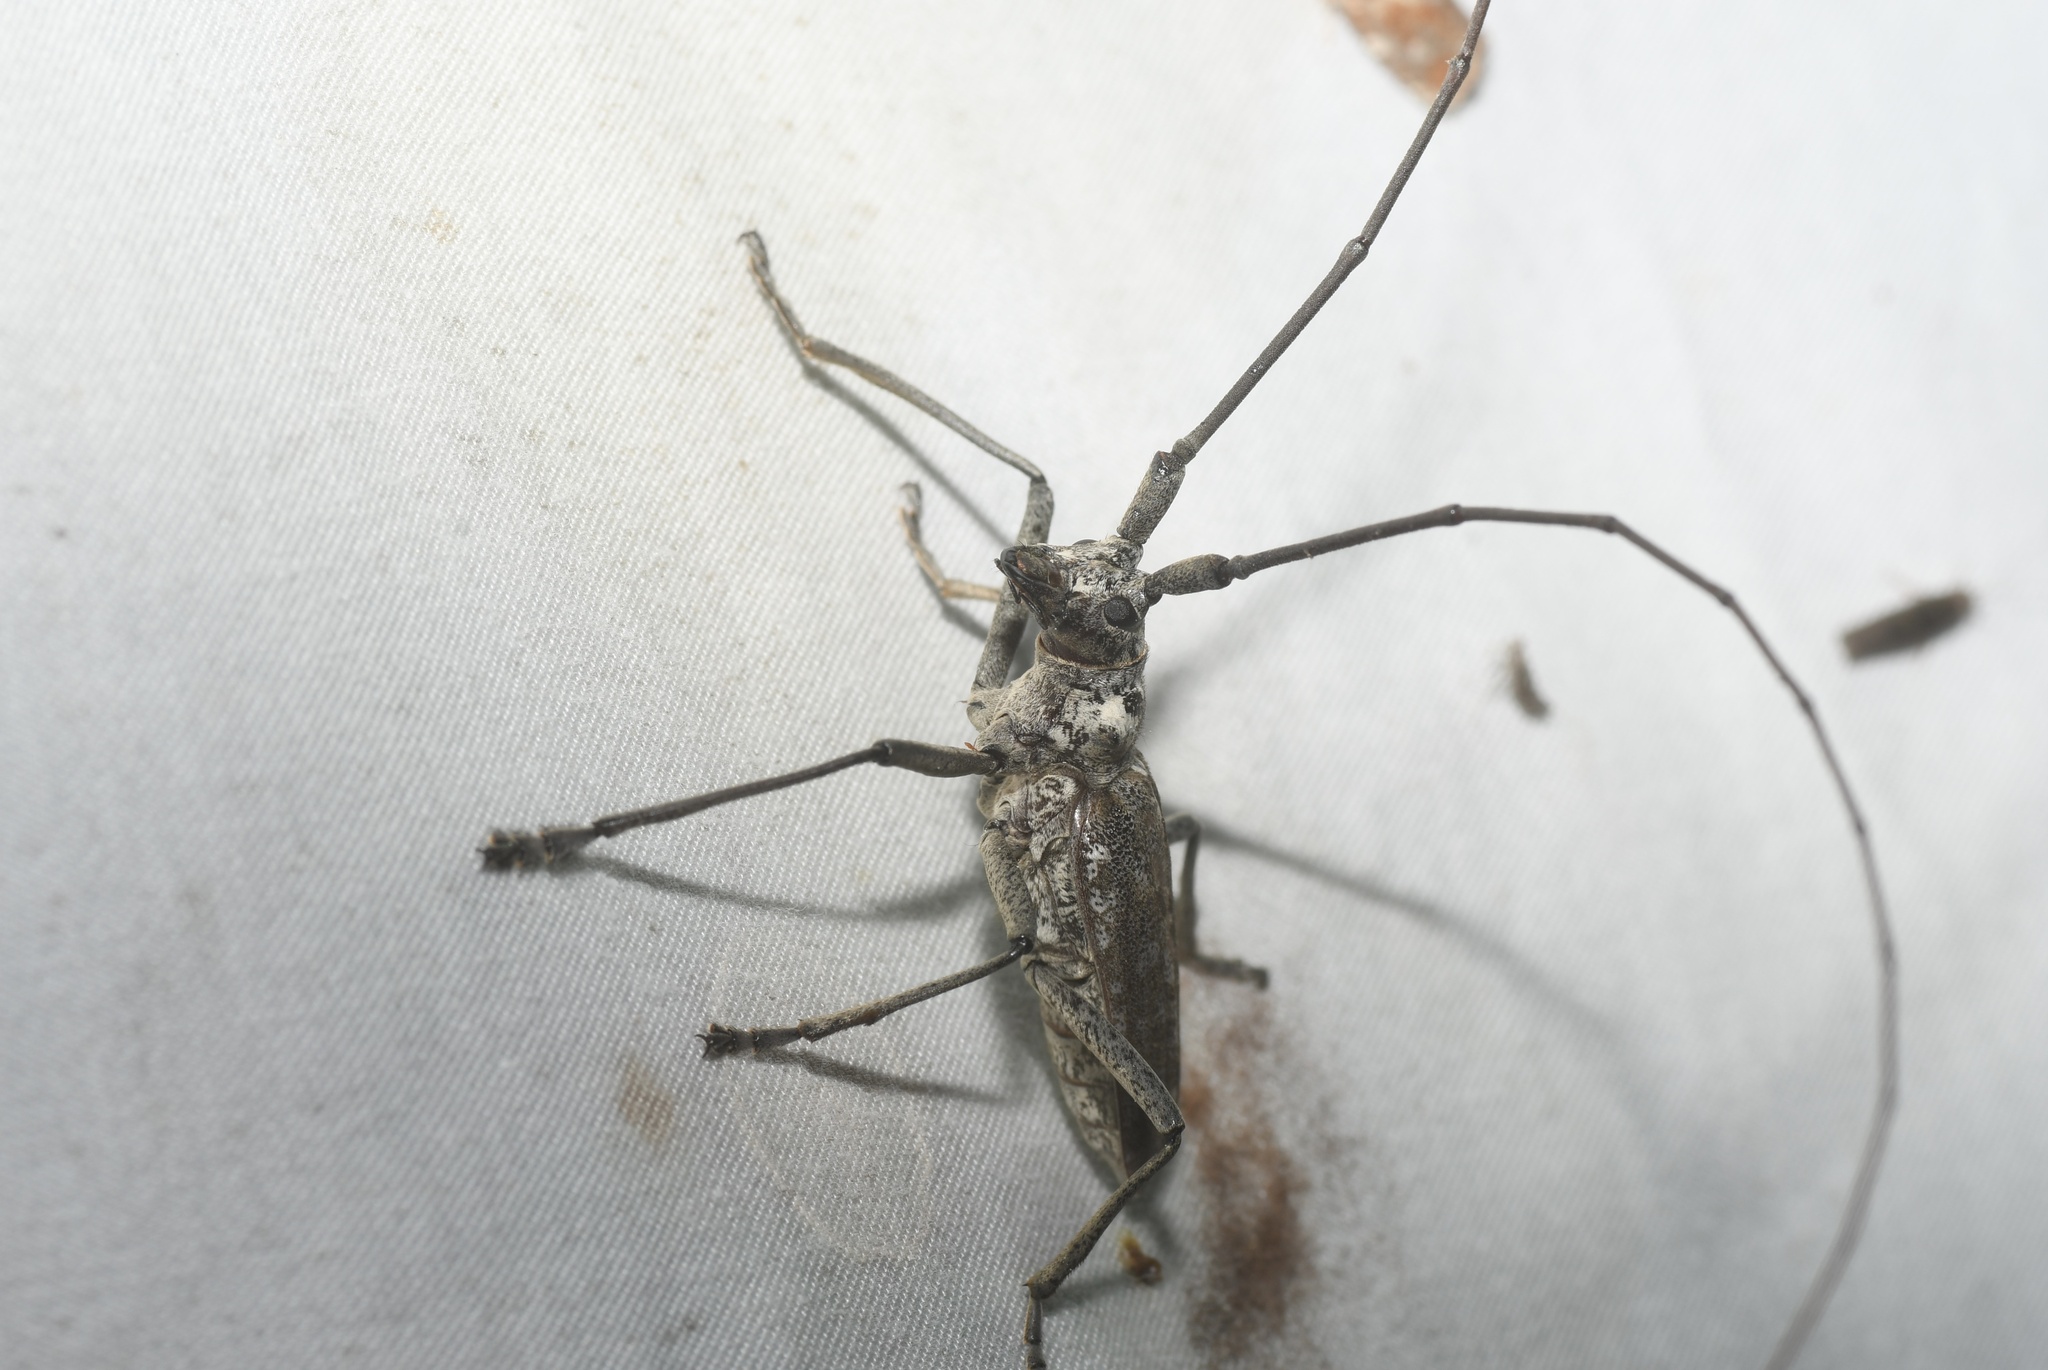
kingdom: Animalia
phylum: Arthropoda
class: Insecta
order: Coleoptera
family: Cerambycidae
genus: Monochamus
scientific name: Monochamus notatus
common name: Northeastern pine sawyer beetle
